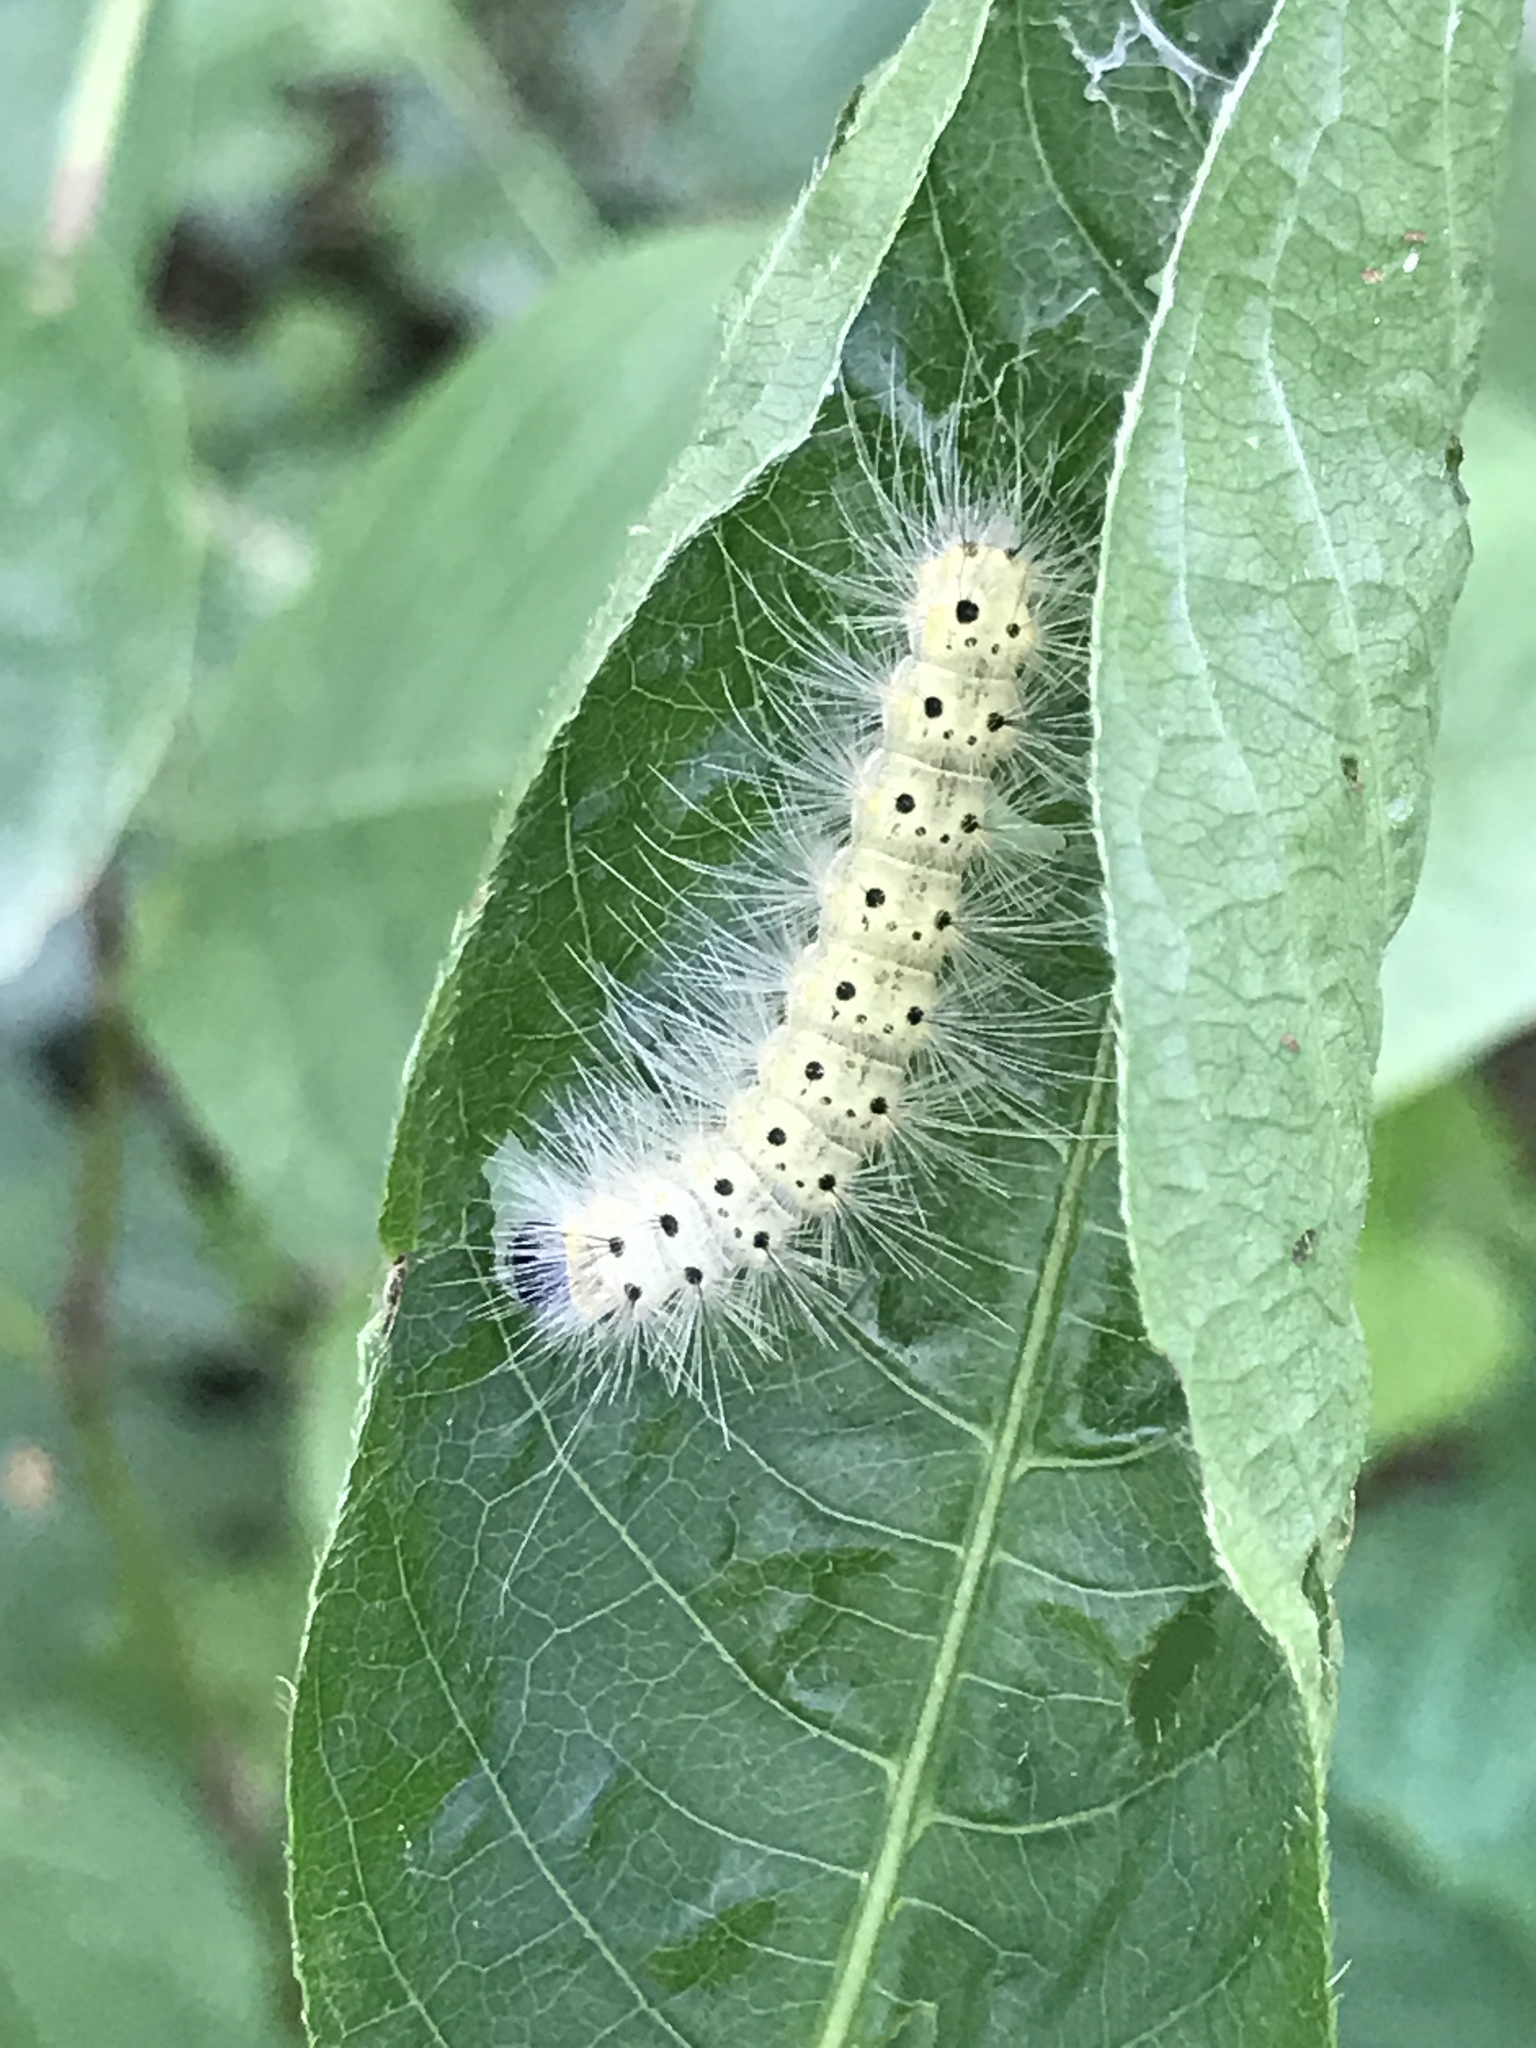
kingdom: Animalia
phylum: Arthropoda
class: Insecta
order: Lepidoptera
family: Erebidae
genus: Hyphantria
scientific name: Hyphantria cunea
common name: American white moth
